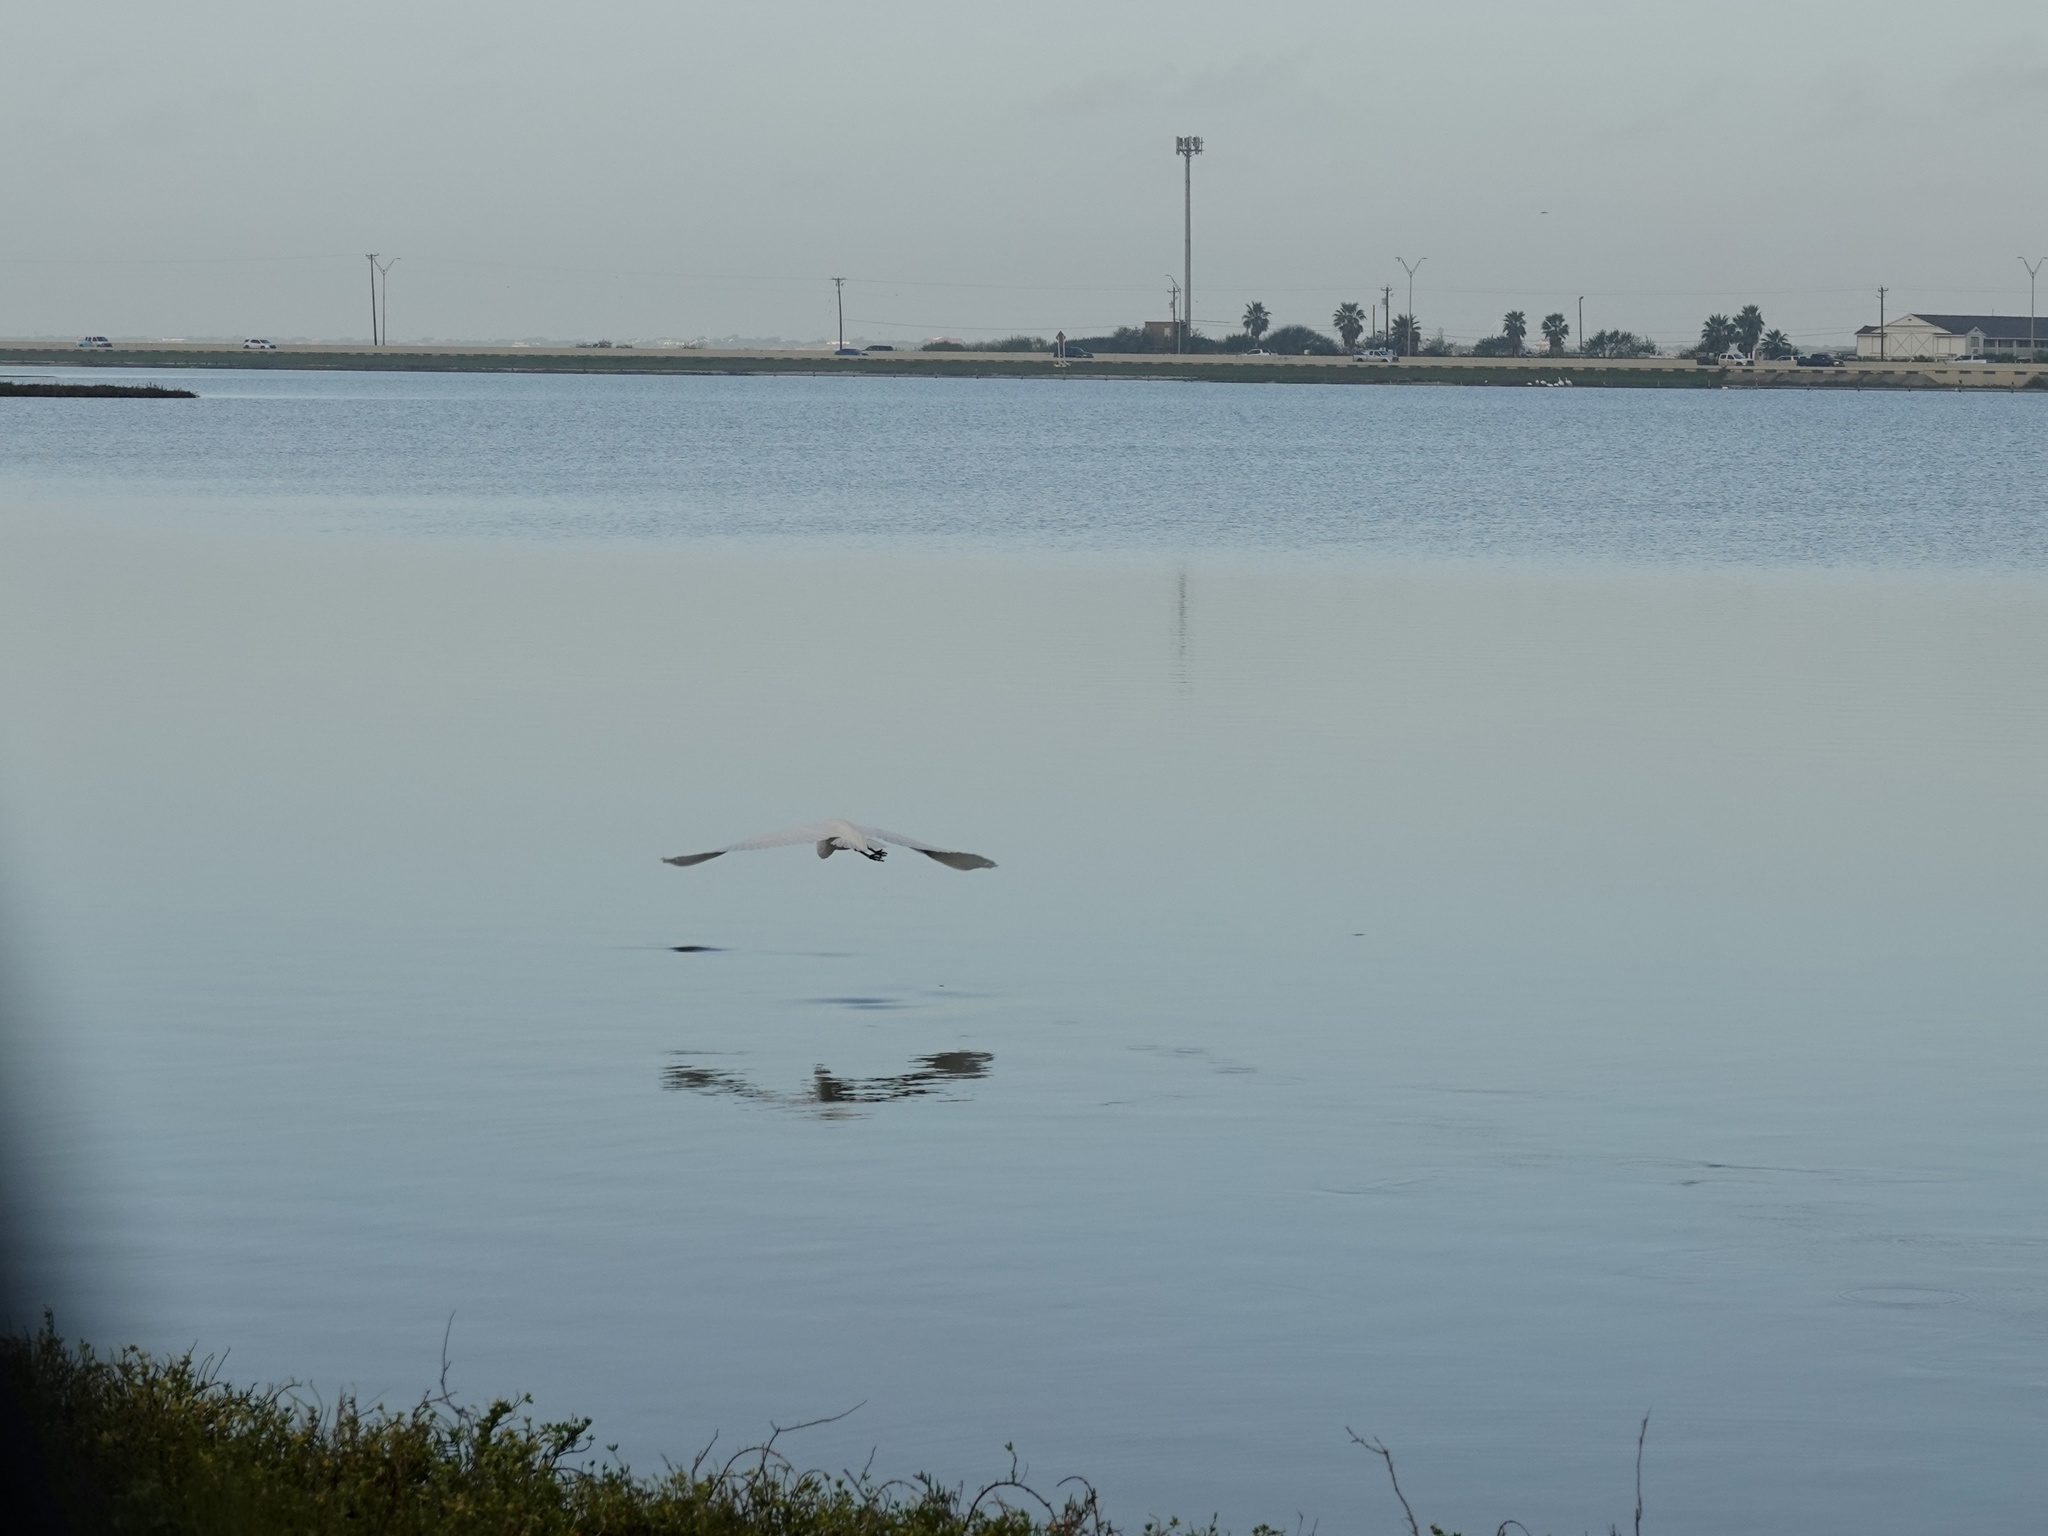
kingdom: Animalia
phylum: Chordata
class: Aves
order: Pelecaniformes
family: Ardeidae
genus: Ardea
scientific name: Ardea alba
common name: Great egret
